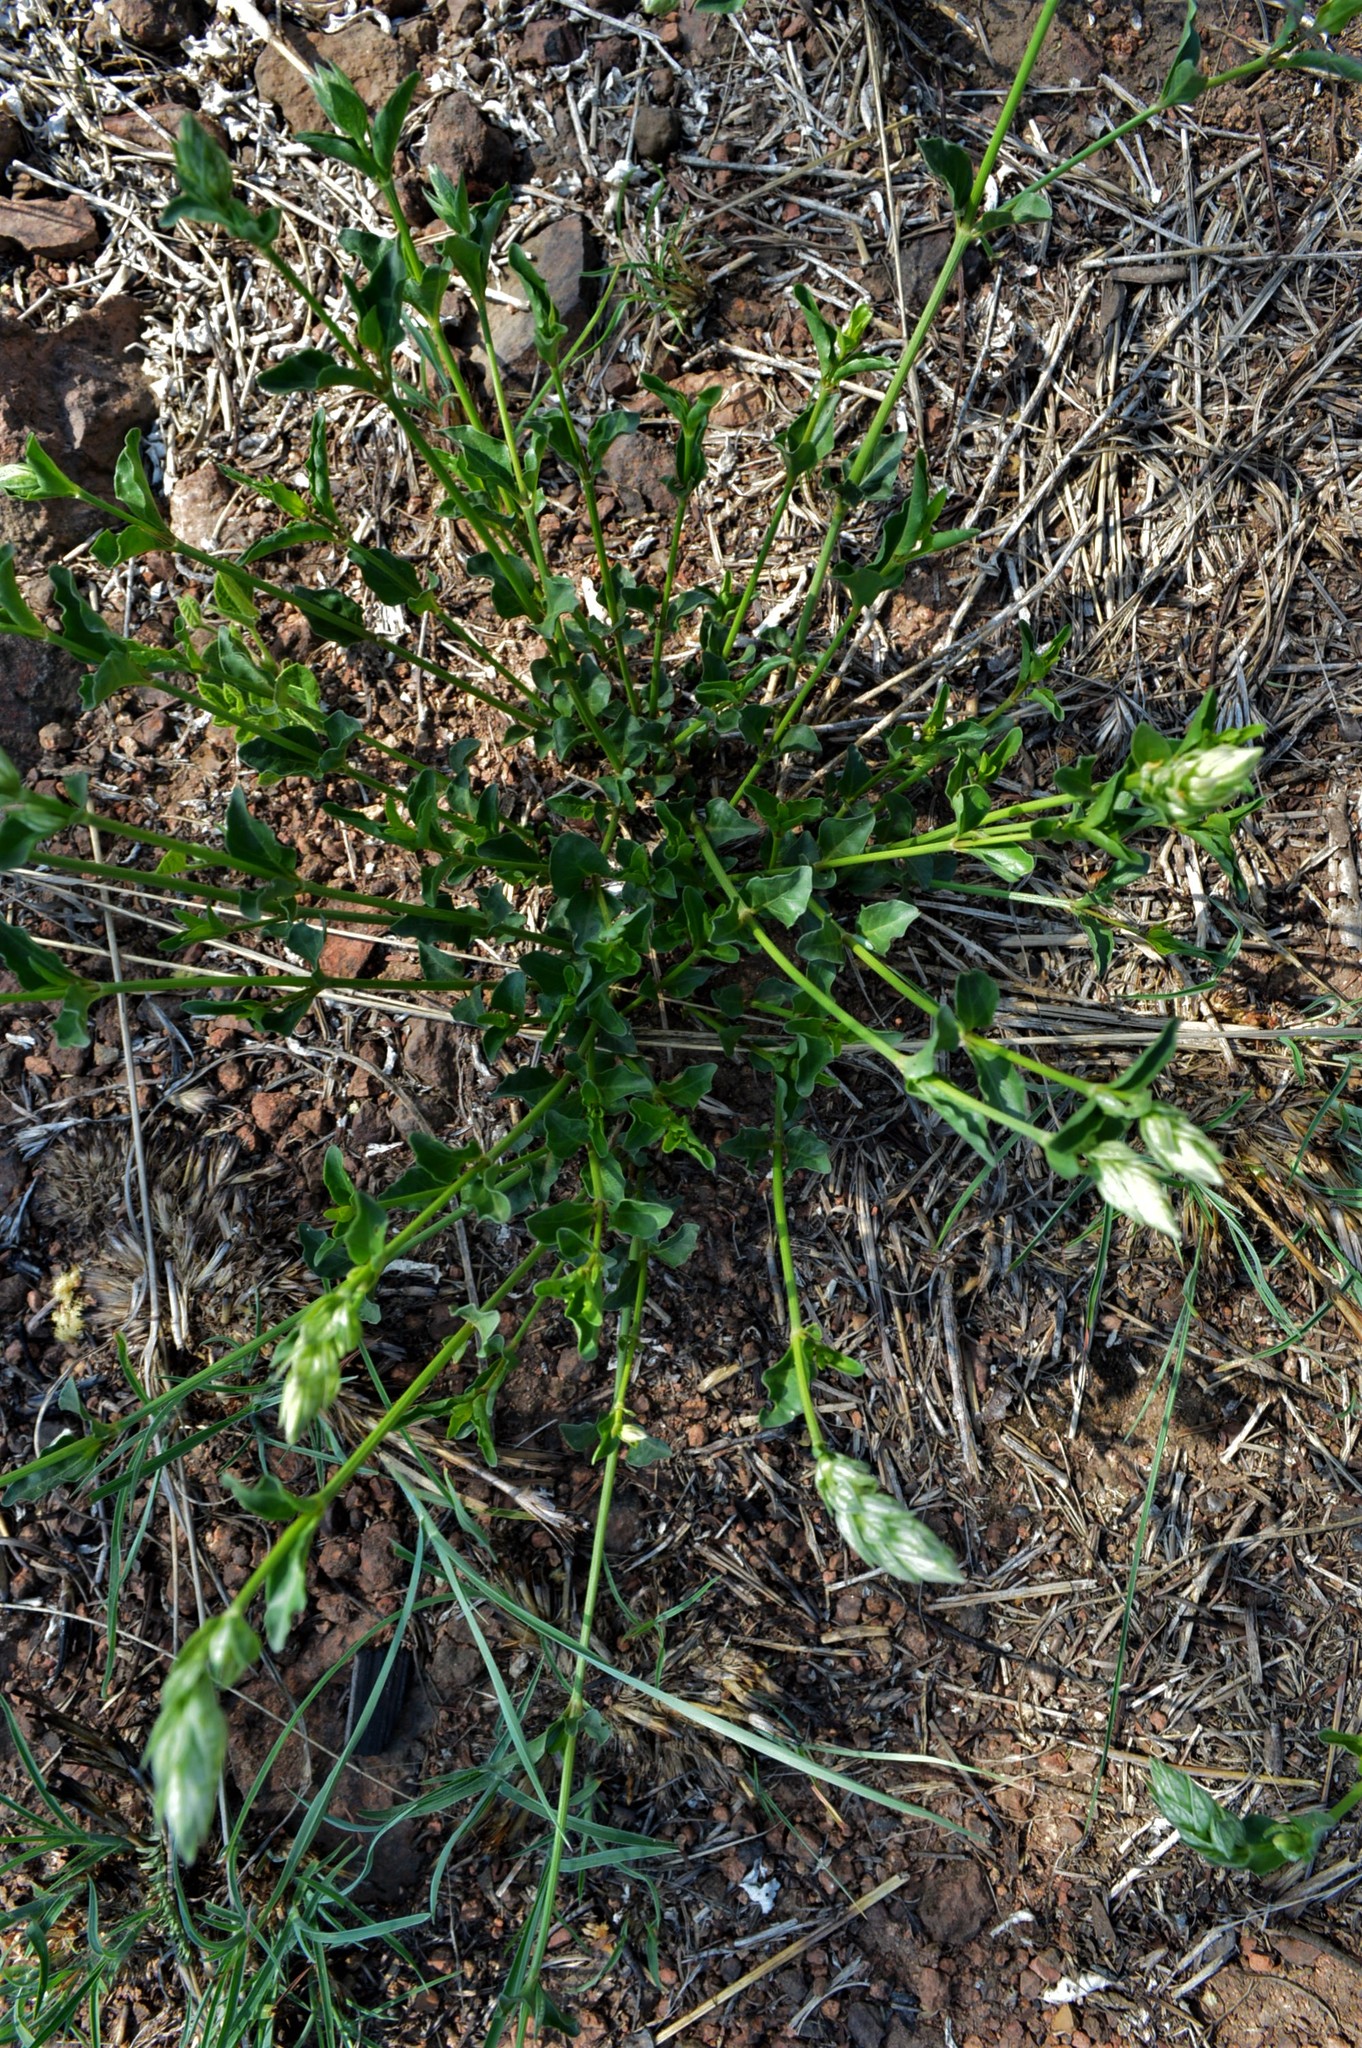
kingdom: Plantae
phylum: Tracheophyta
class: Magnoliopsida
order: Lamiales
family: Acanthaceae
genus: Justicia
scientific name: Justicia betonica
